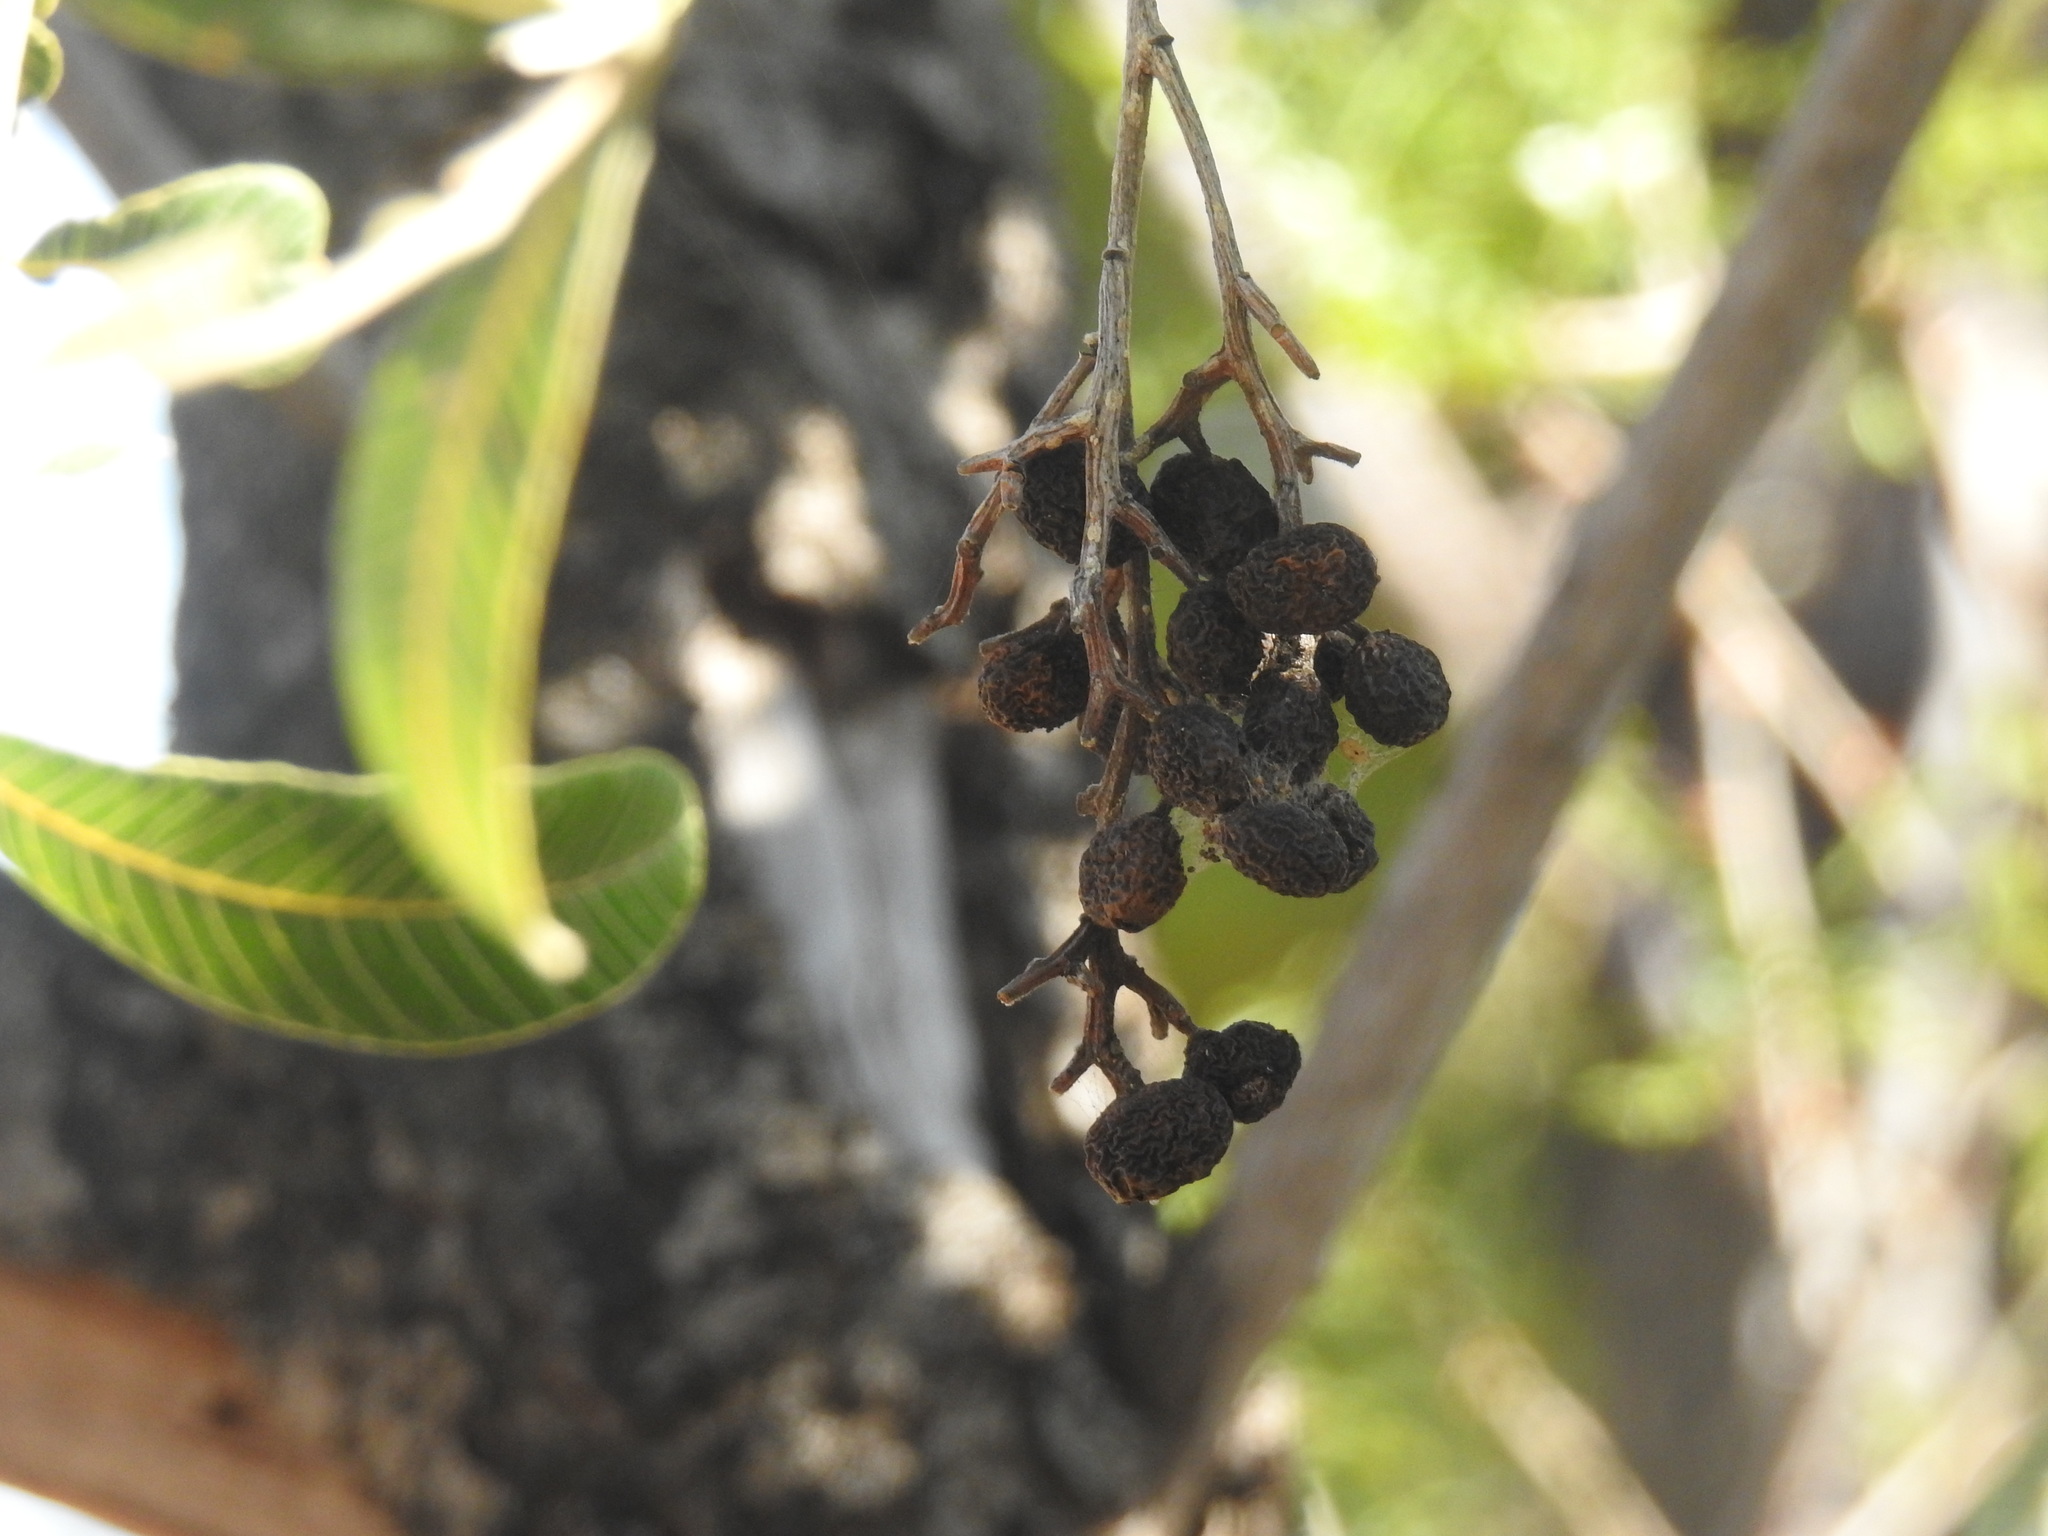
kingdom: Plantae
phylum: Tracheophyta
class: Magnoliopsida
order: Sapindales
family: Anacardiaceae
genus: Ozoroa
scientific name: Ozoroa paniculosa
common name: Bushveld ozoroa
